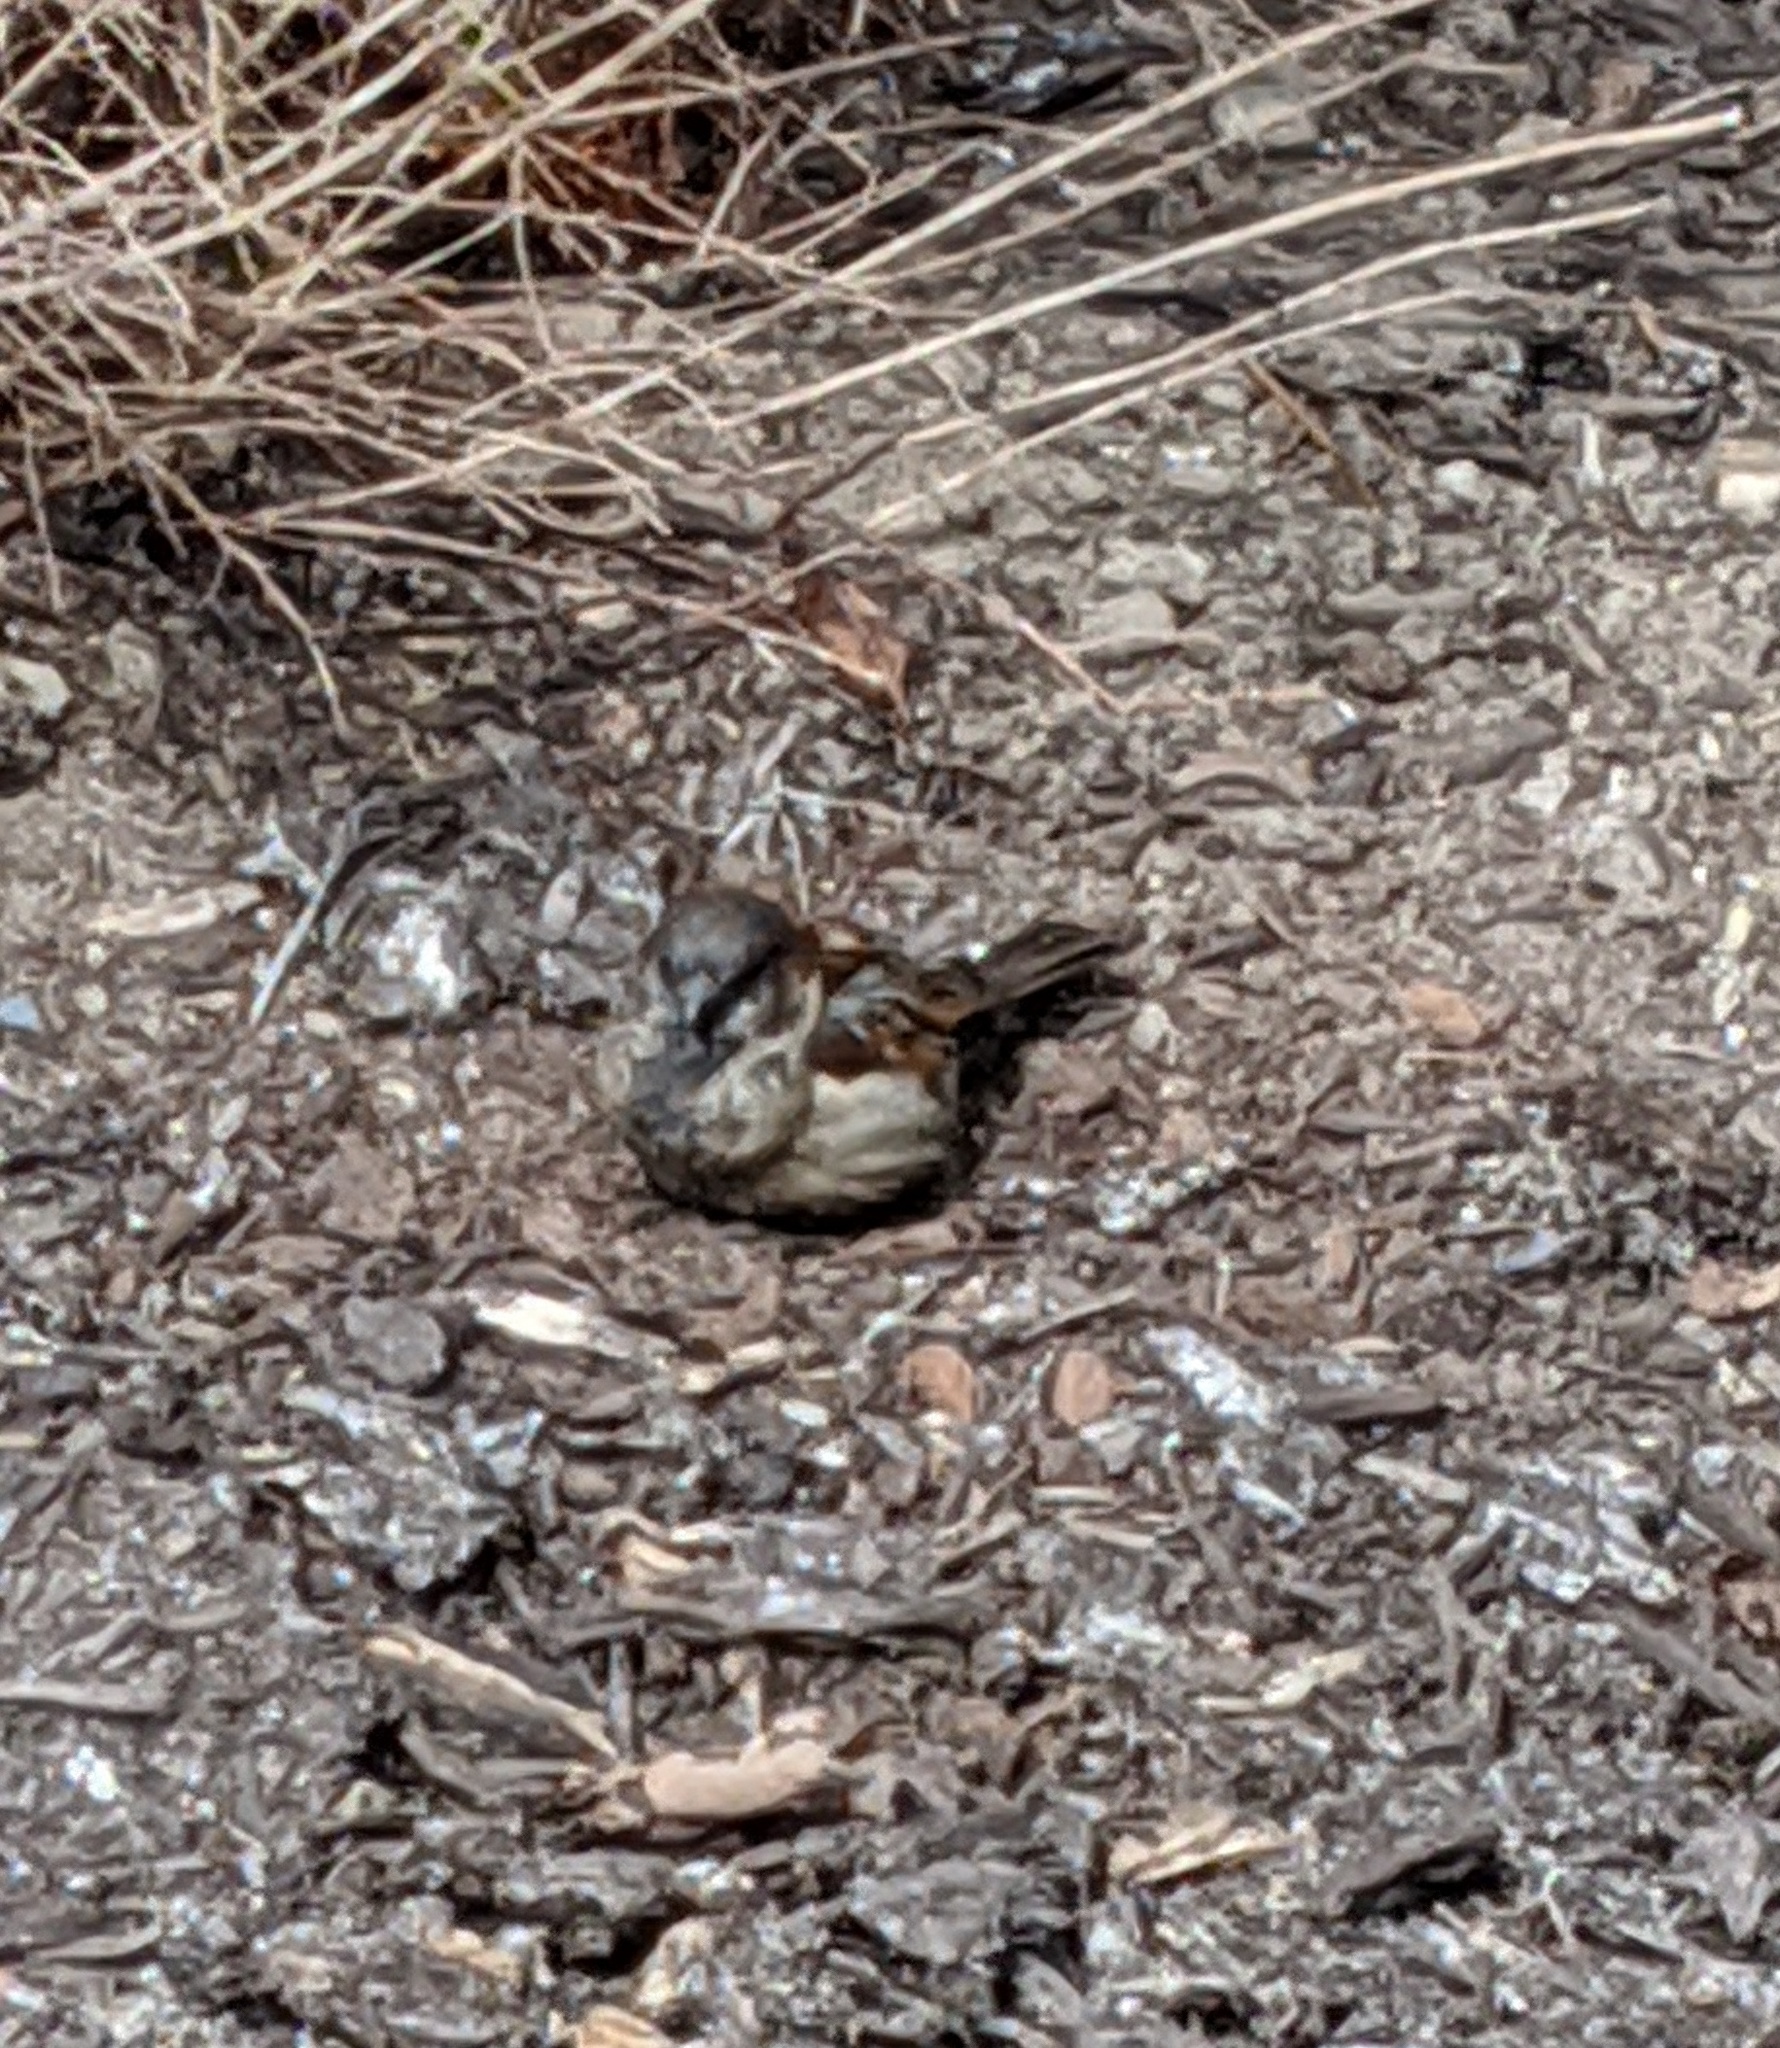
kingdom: Animalia
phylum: Chordata
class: Aves
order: Passeriformes
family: Passeridae
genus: Passer
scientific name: Passer domesticus
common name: House sparrow
